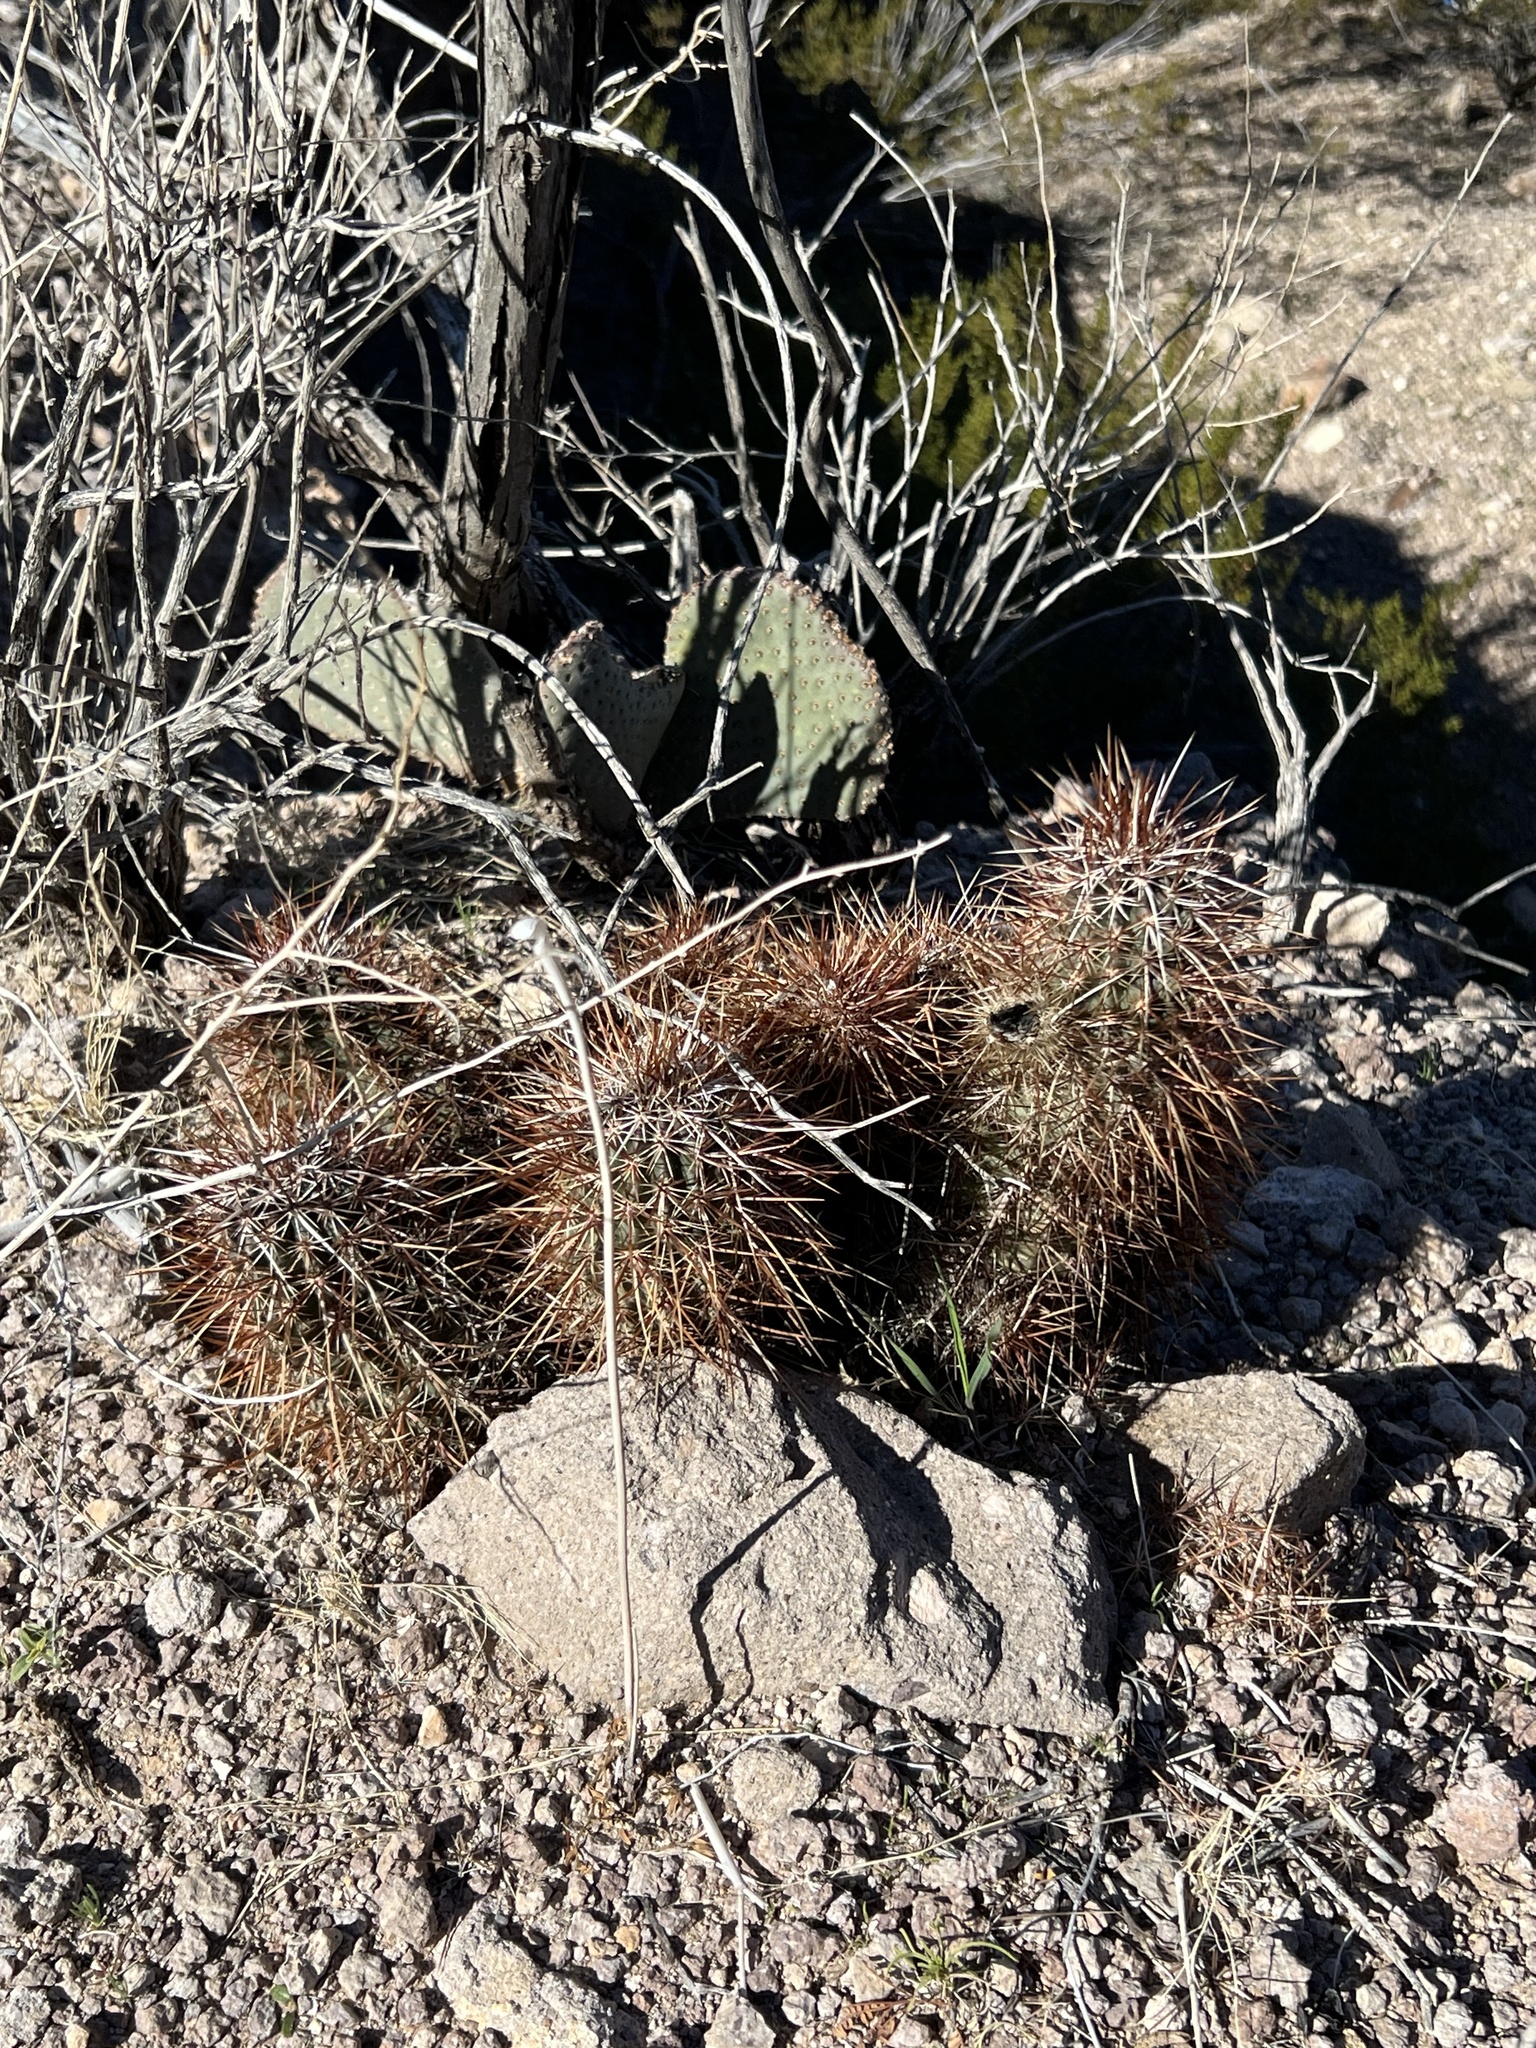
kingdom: Plantae
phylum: Tracheophyta
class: Magnoliopsida
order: Caryophyllales
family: Cactaceae
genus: Echinocereus
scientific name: Echinocereus engelmannii
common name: Engelmann's hedgehog cactus
